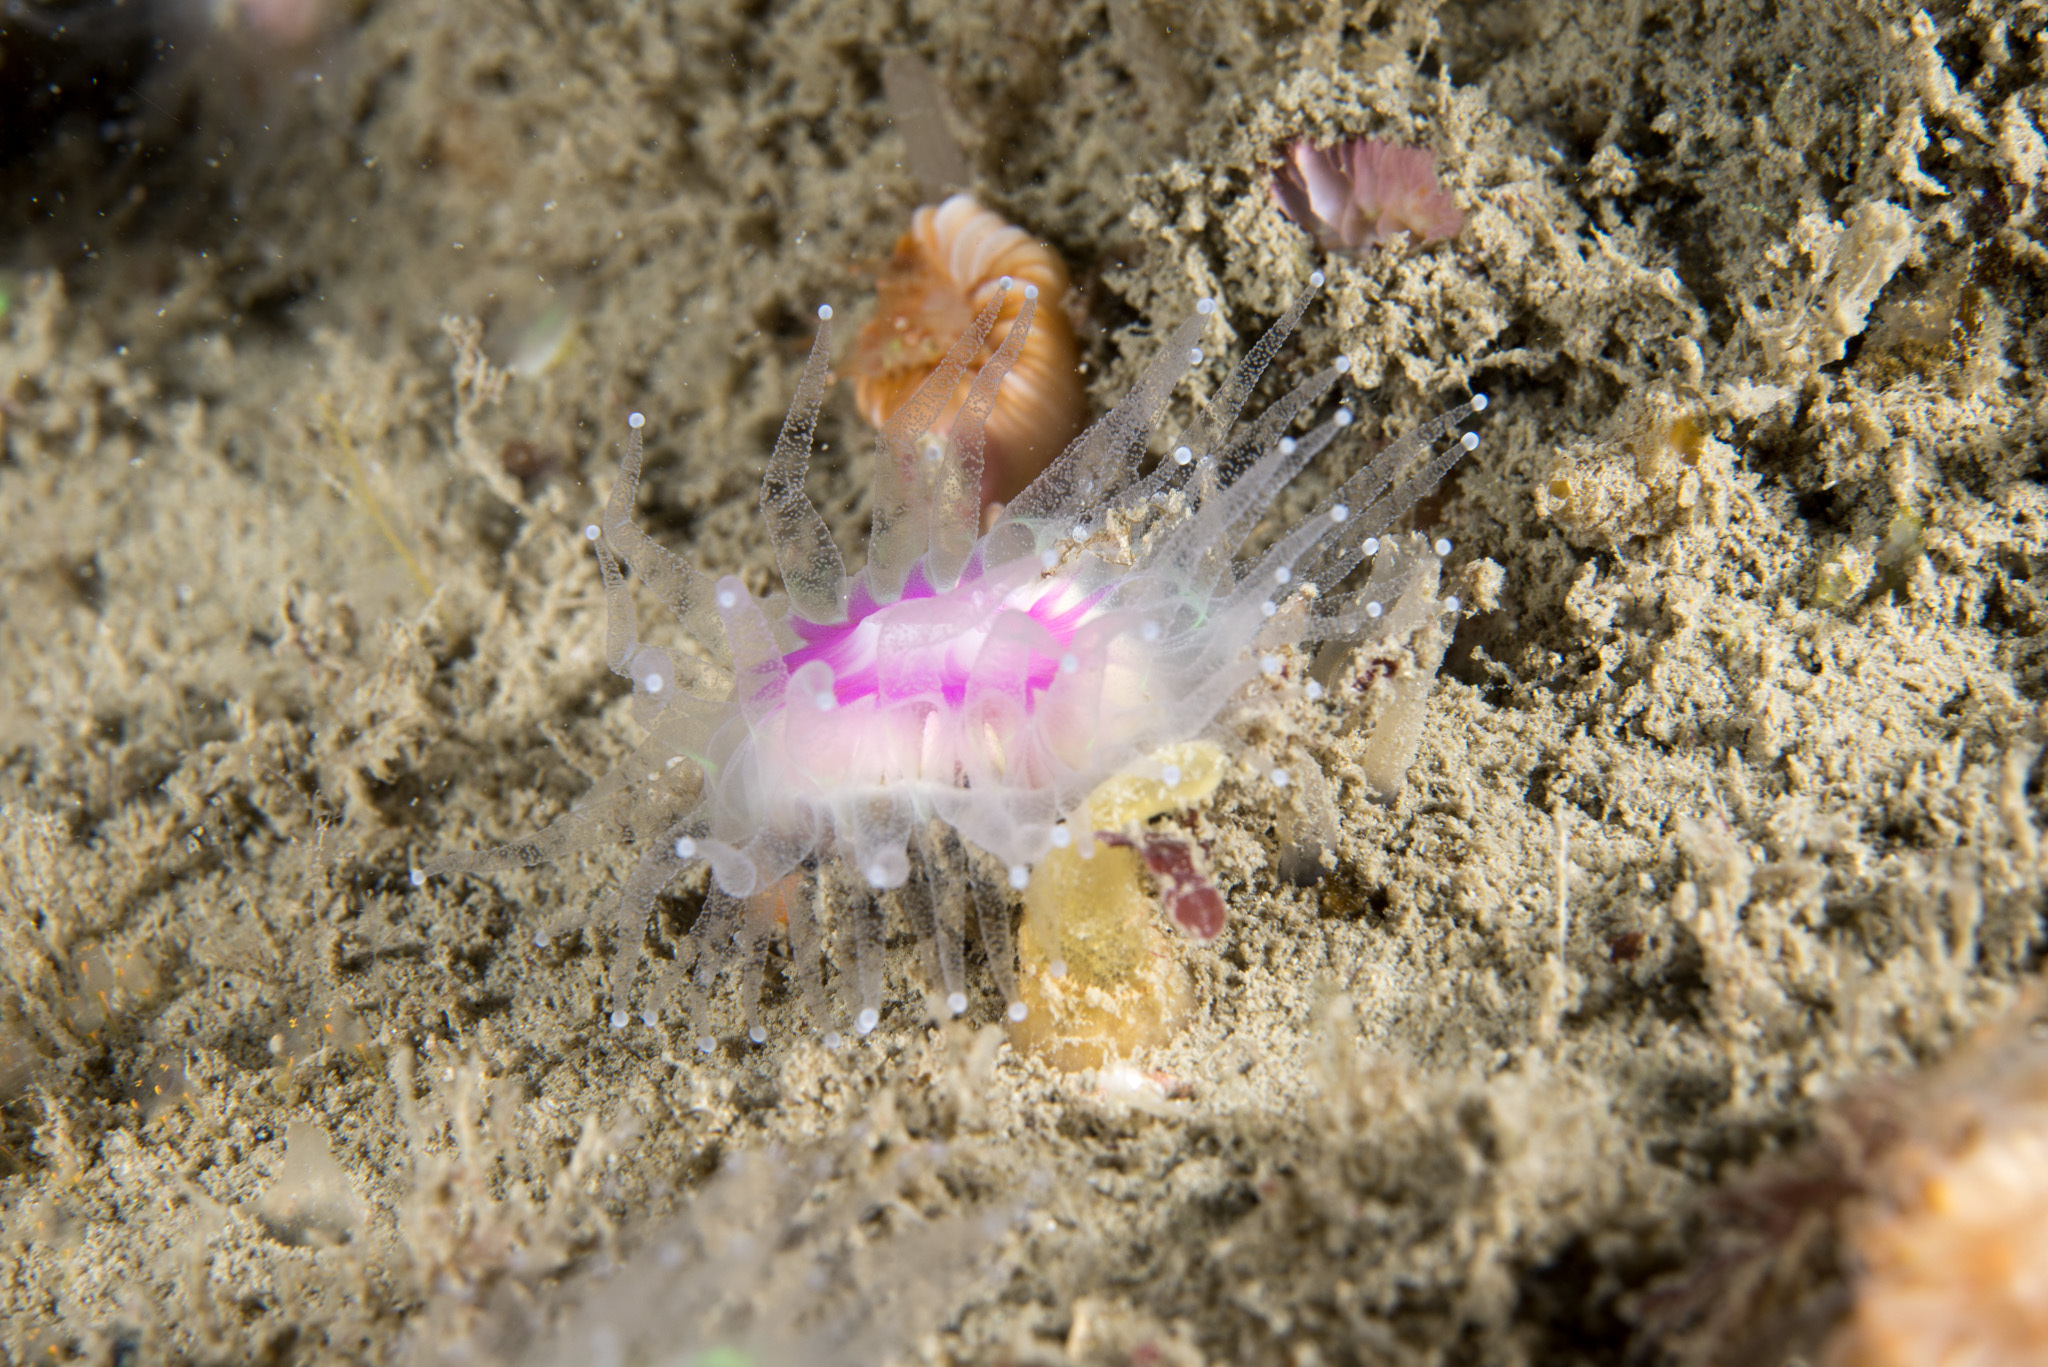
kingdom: Animalia
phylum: Cnidaria
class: Anthozoa
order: Scleractinia
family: Caryophylliidae
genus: Caryophyllia
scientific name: Caryophyllia smithii
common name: Devonshire cup coral
